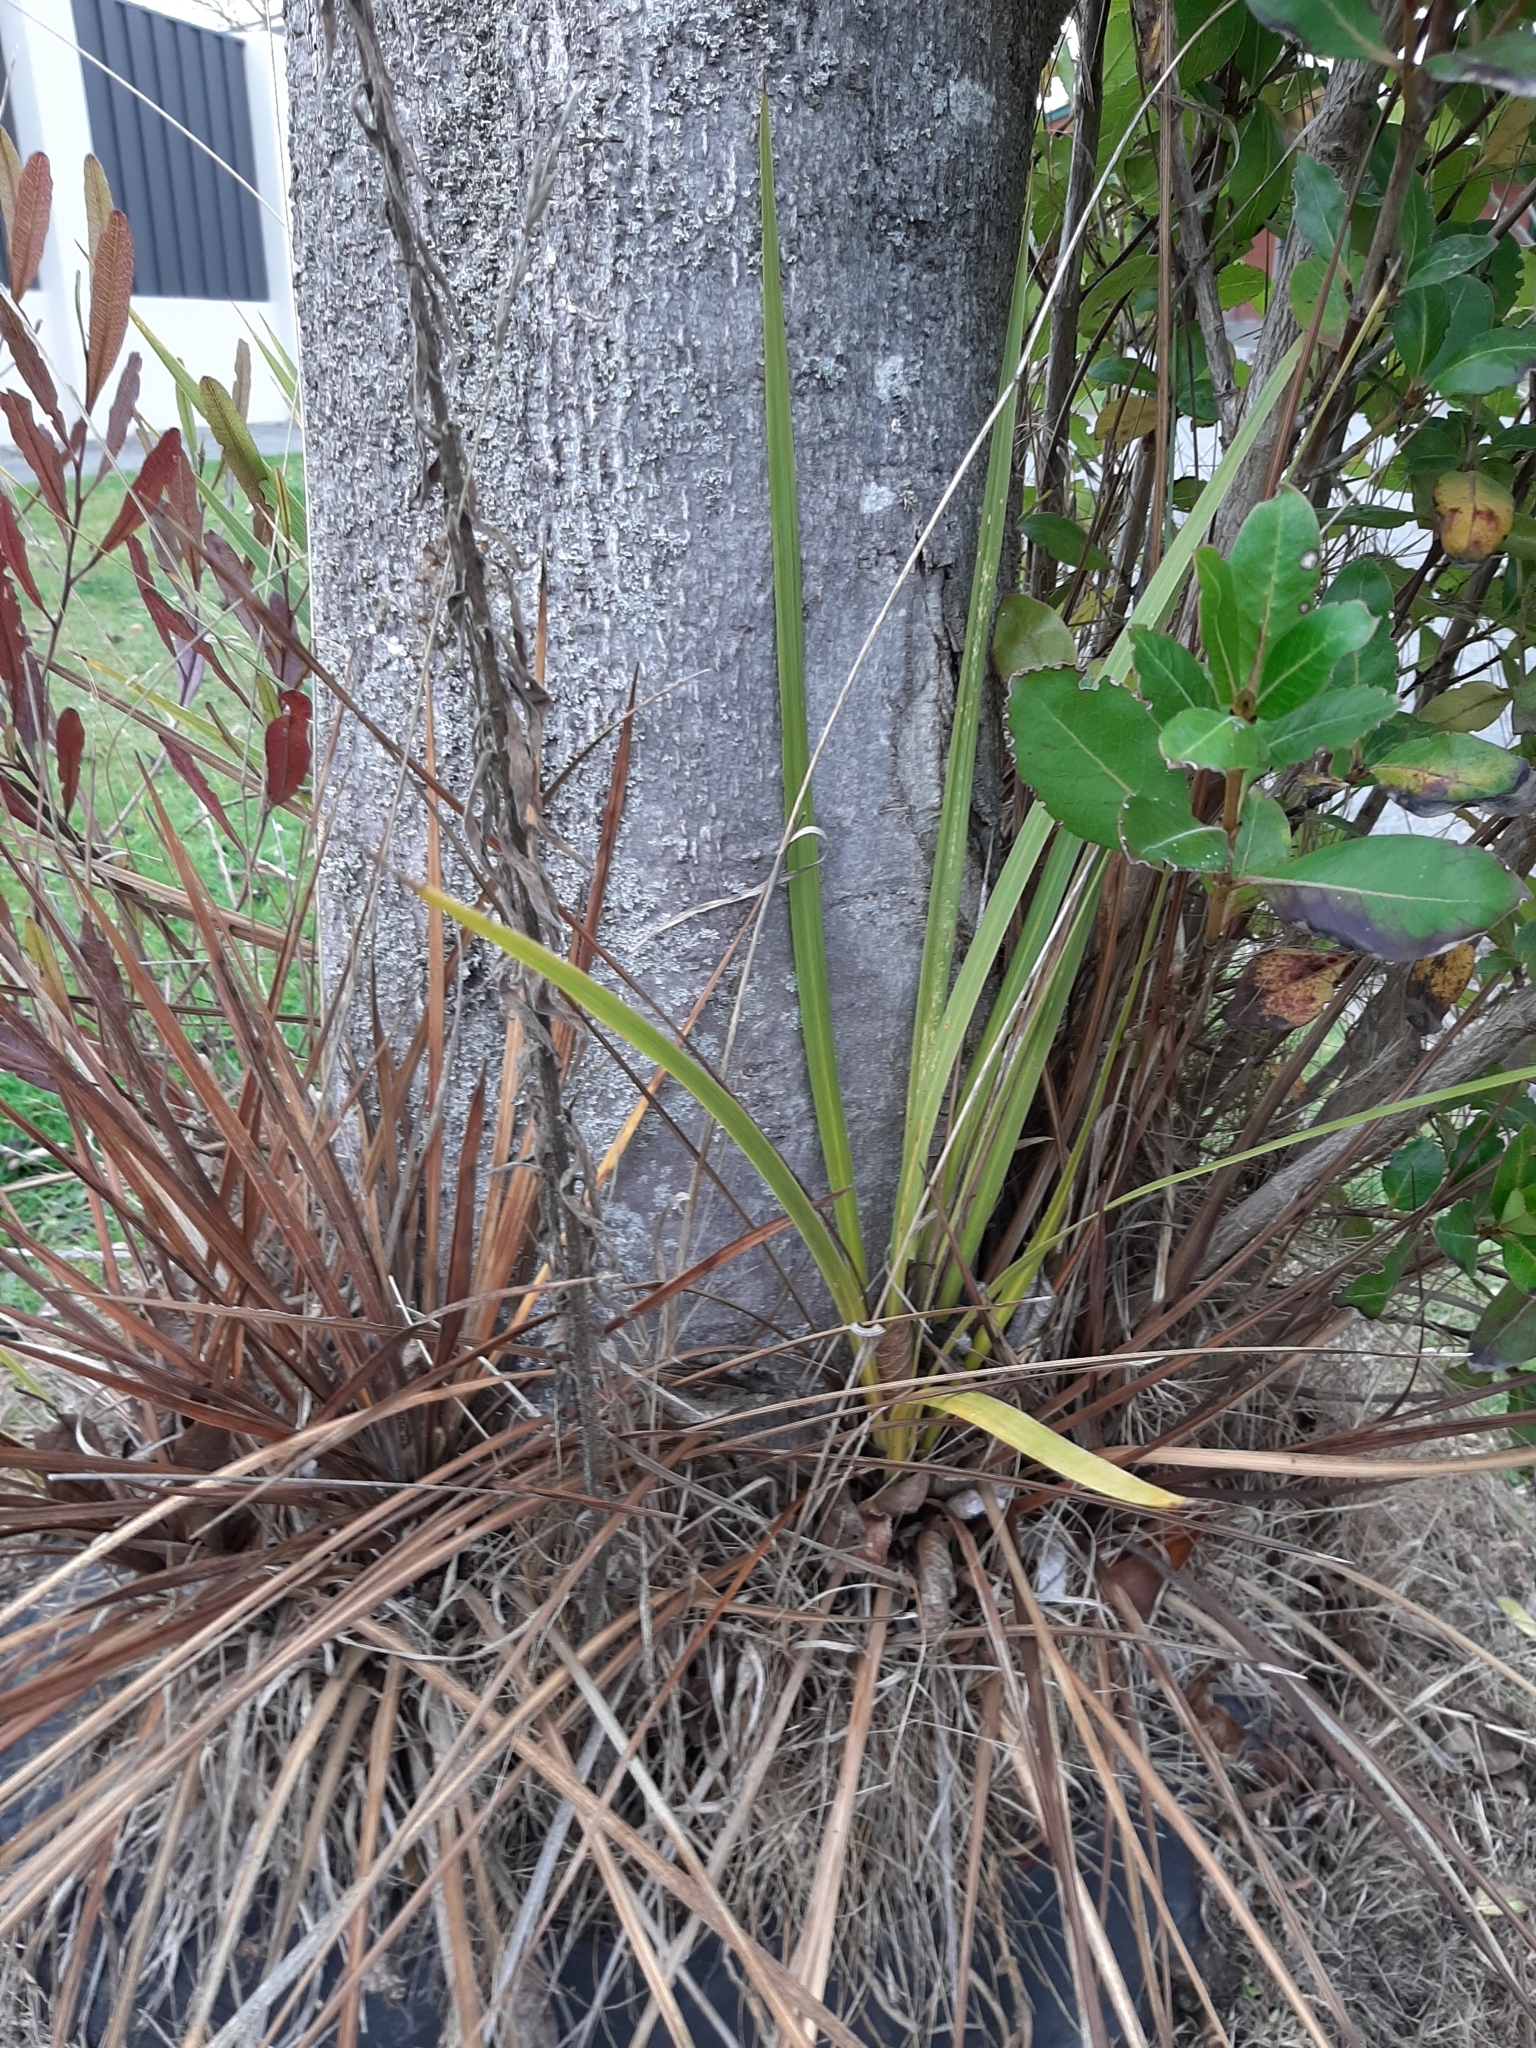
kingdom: Plantae
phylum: Tracheophyta
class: Liliopsida
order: Asparagales
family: Asparagaceae
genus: Cordyline
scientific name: Cordyline australis
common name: Cabbage-palm
